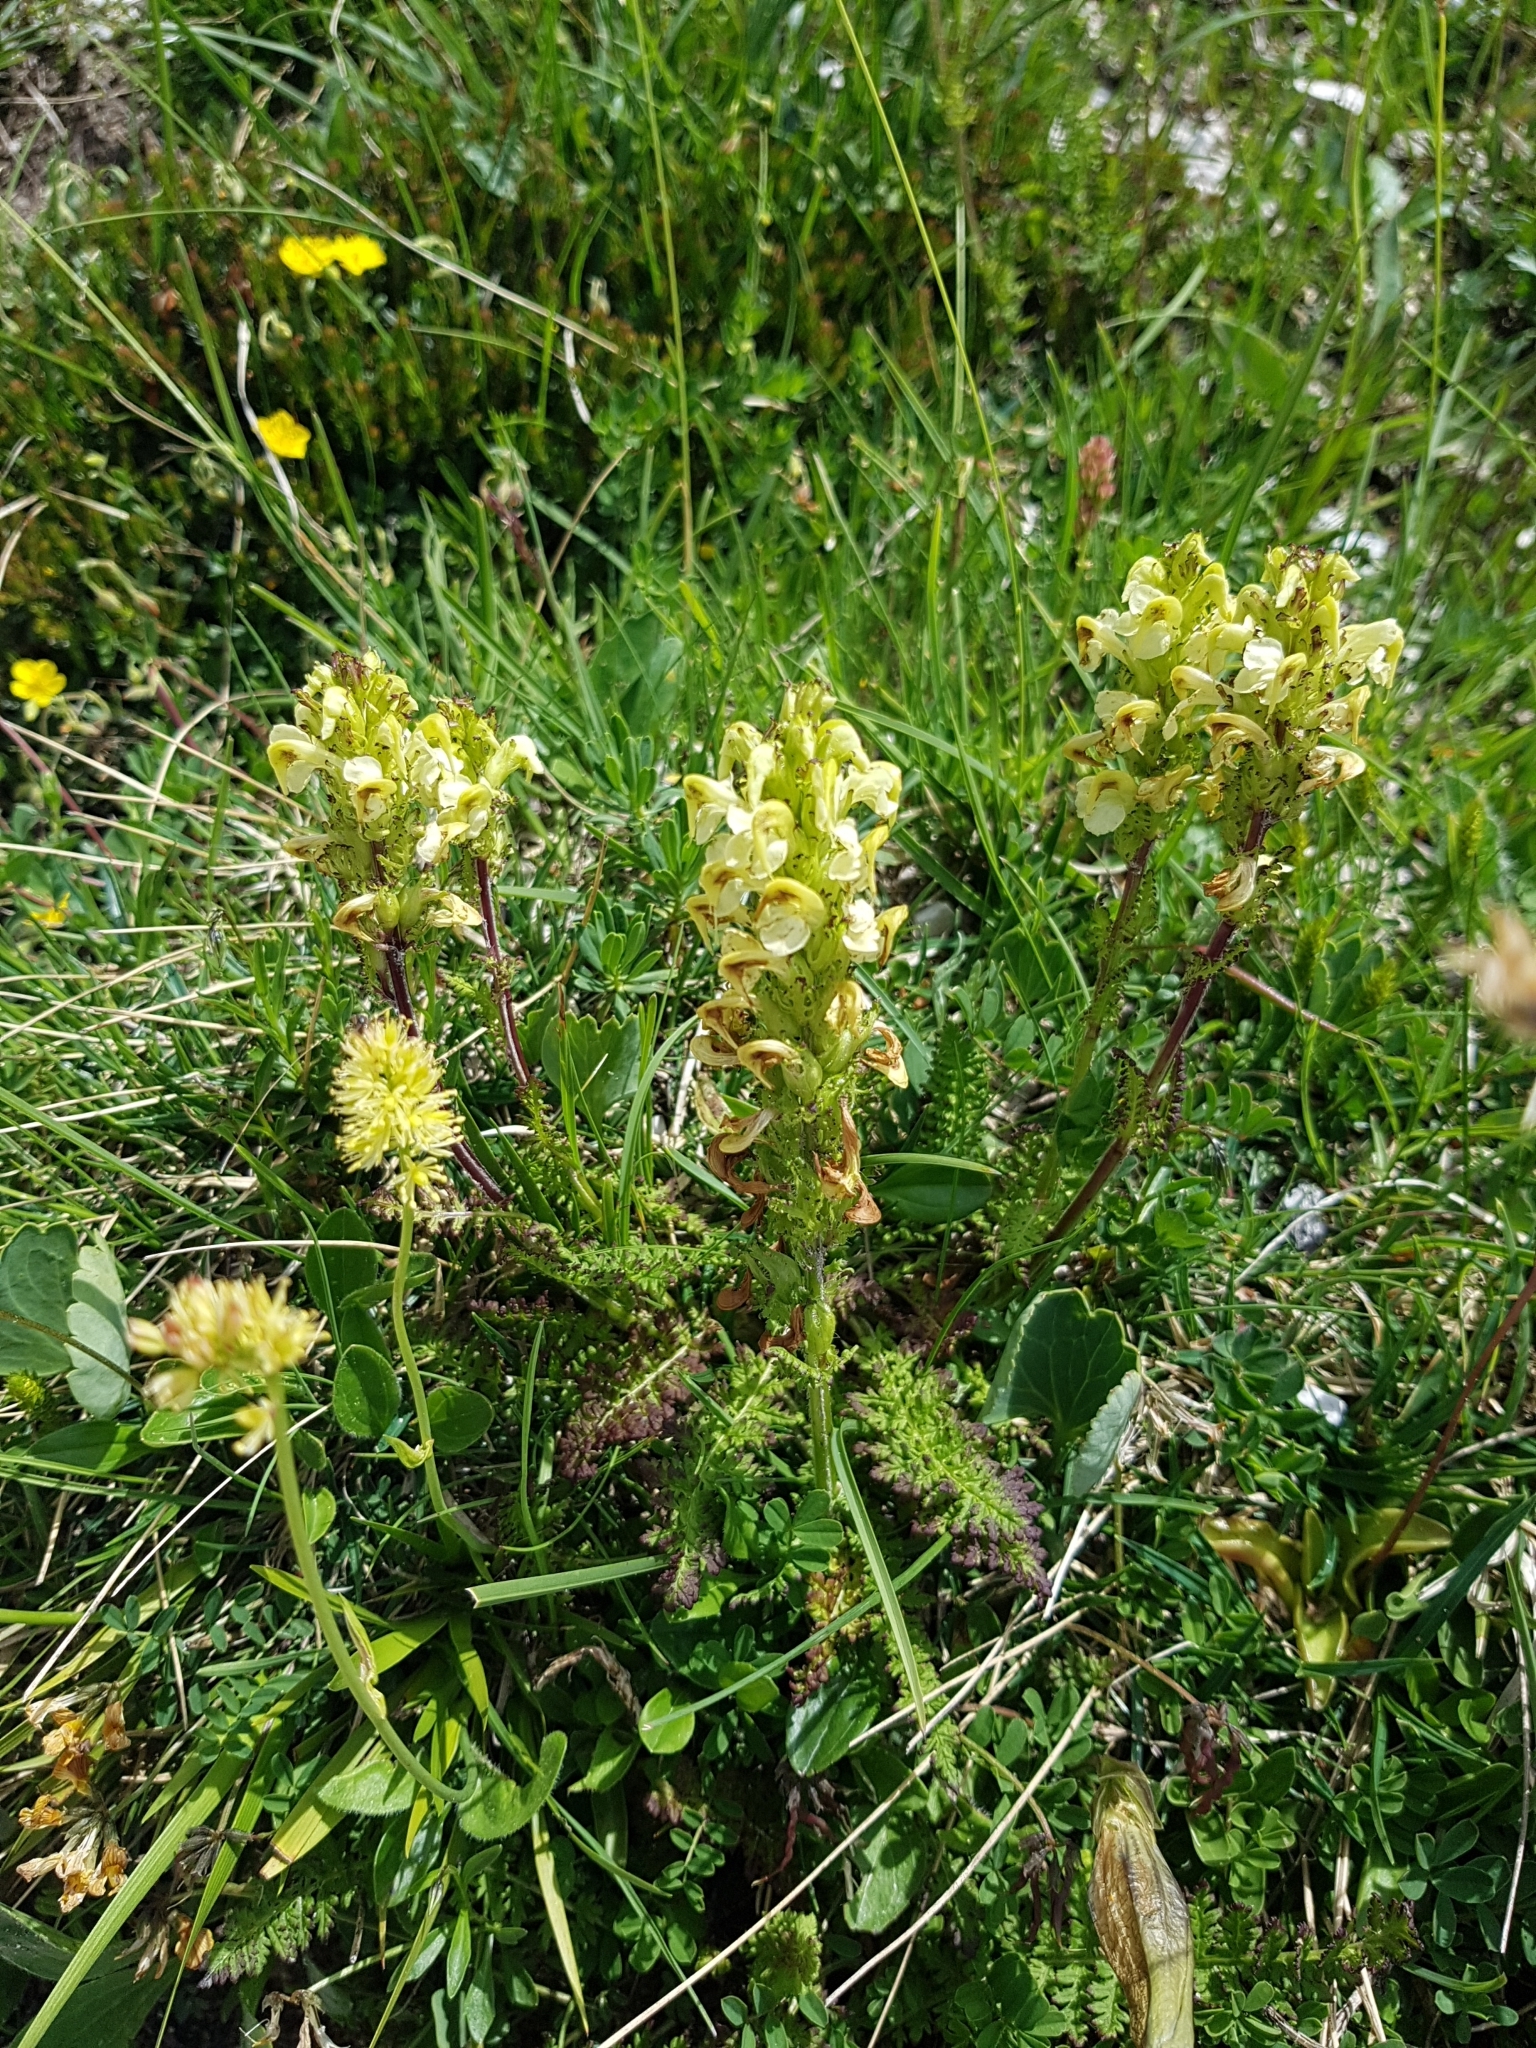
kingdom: Plantae
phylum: Tracheophyta
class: Magnoliopsida
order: Lamiales
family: Orobanchaceae
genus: Pedicularis
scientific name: Pedicularis elongata
